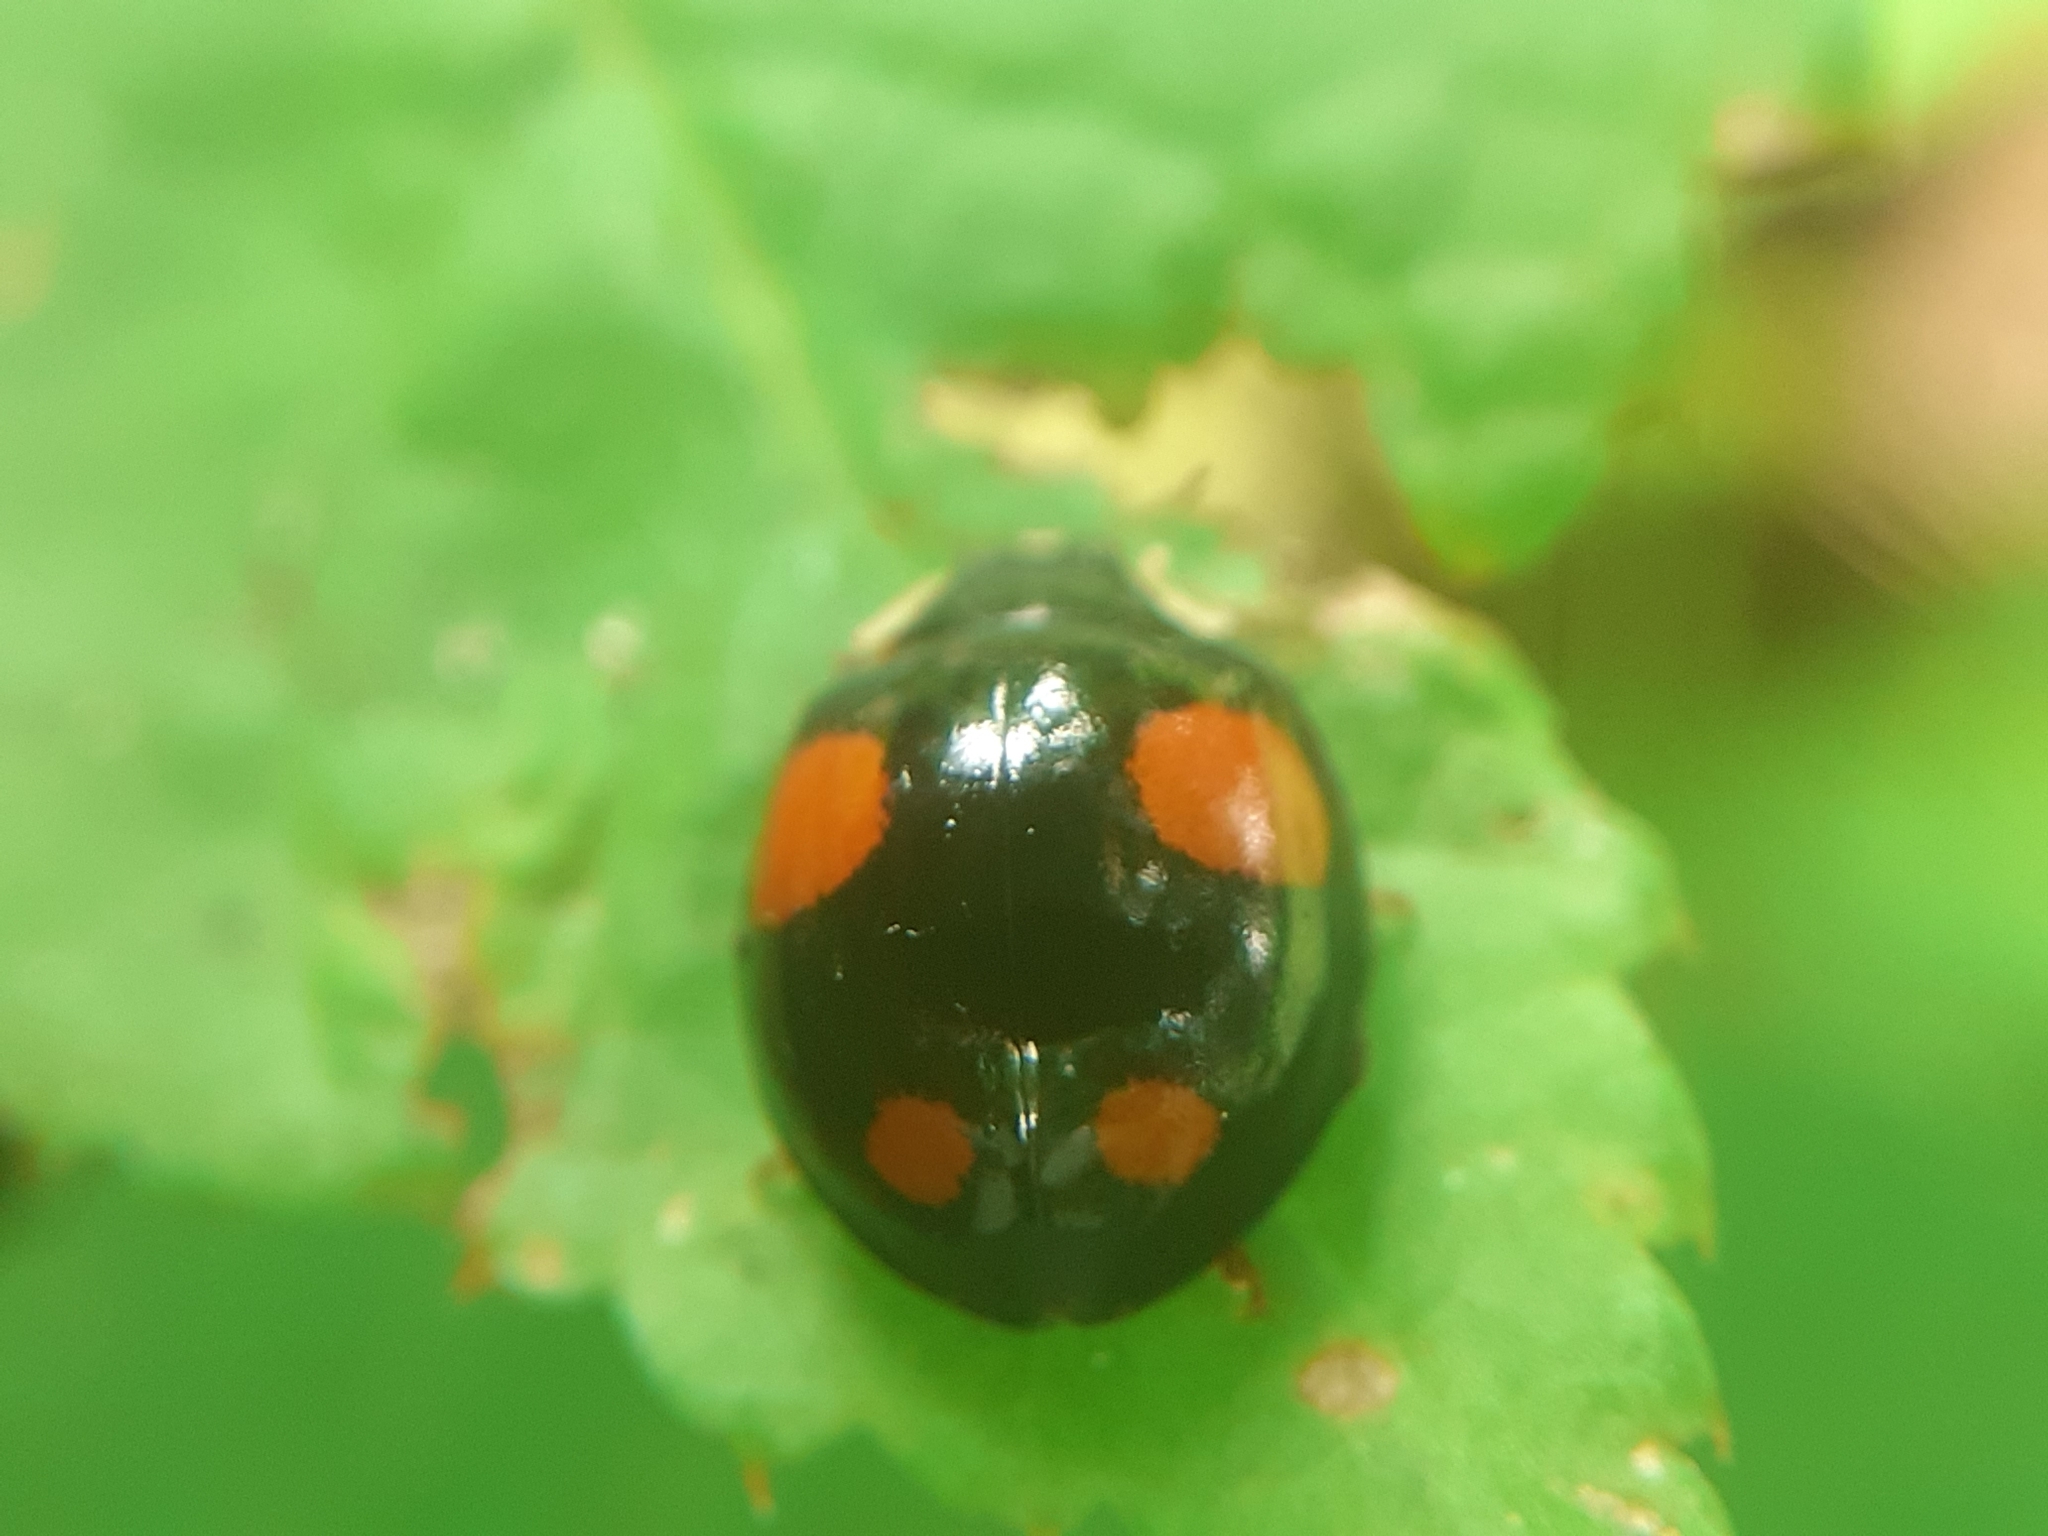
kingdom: Animalia
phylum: Arthropoda
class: Insecta
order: Coleoptera
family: Coccinellidae
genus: Harmonia
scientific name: Harmonia axyridis
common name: Harlequin ladybird
